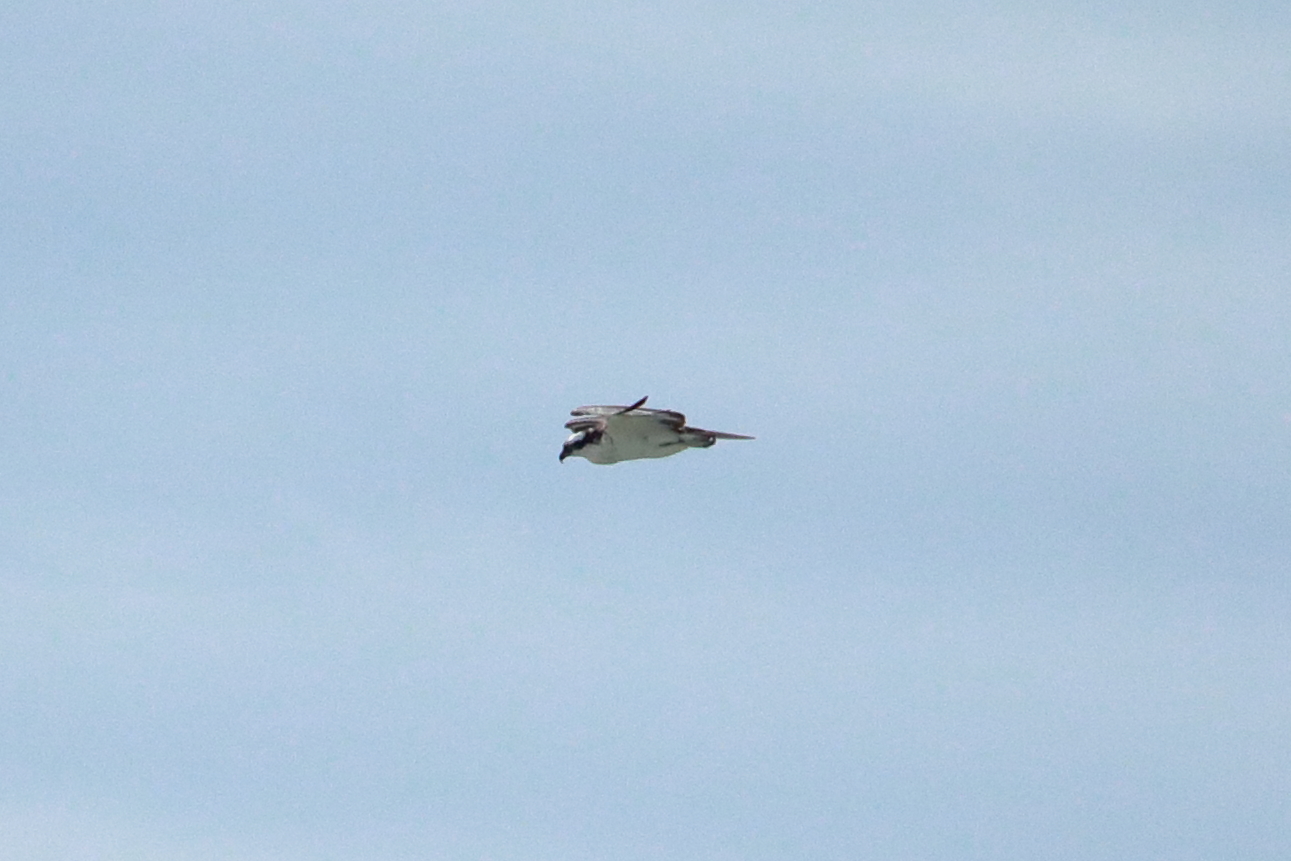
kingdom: Animalia
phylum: Chordata
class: Aves
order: Accipitriformes
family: Pandionidae
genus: Pandion
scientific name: Pandion haliaetus
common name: Osprey
